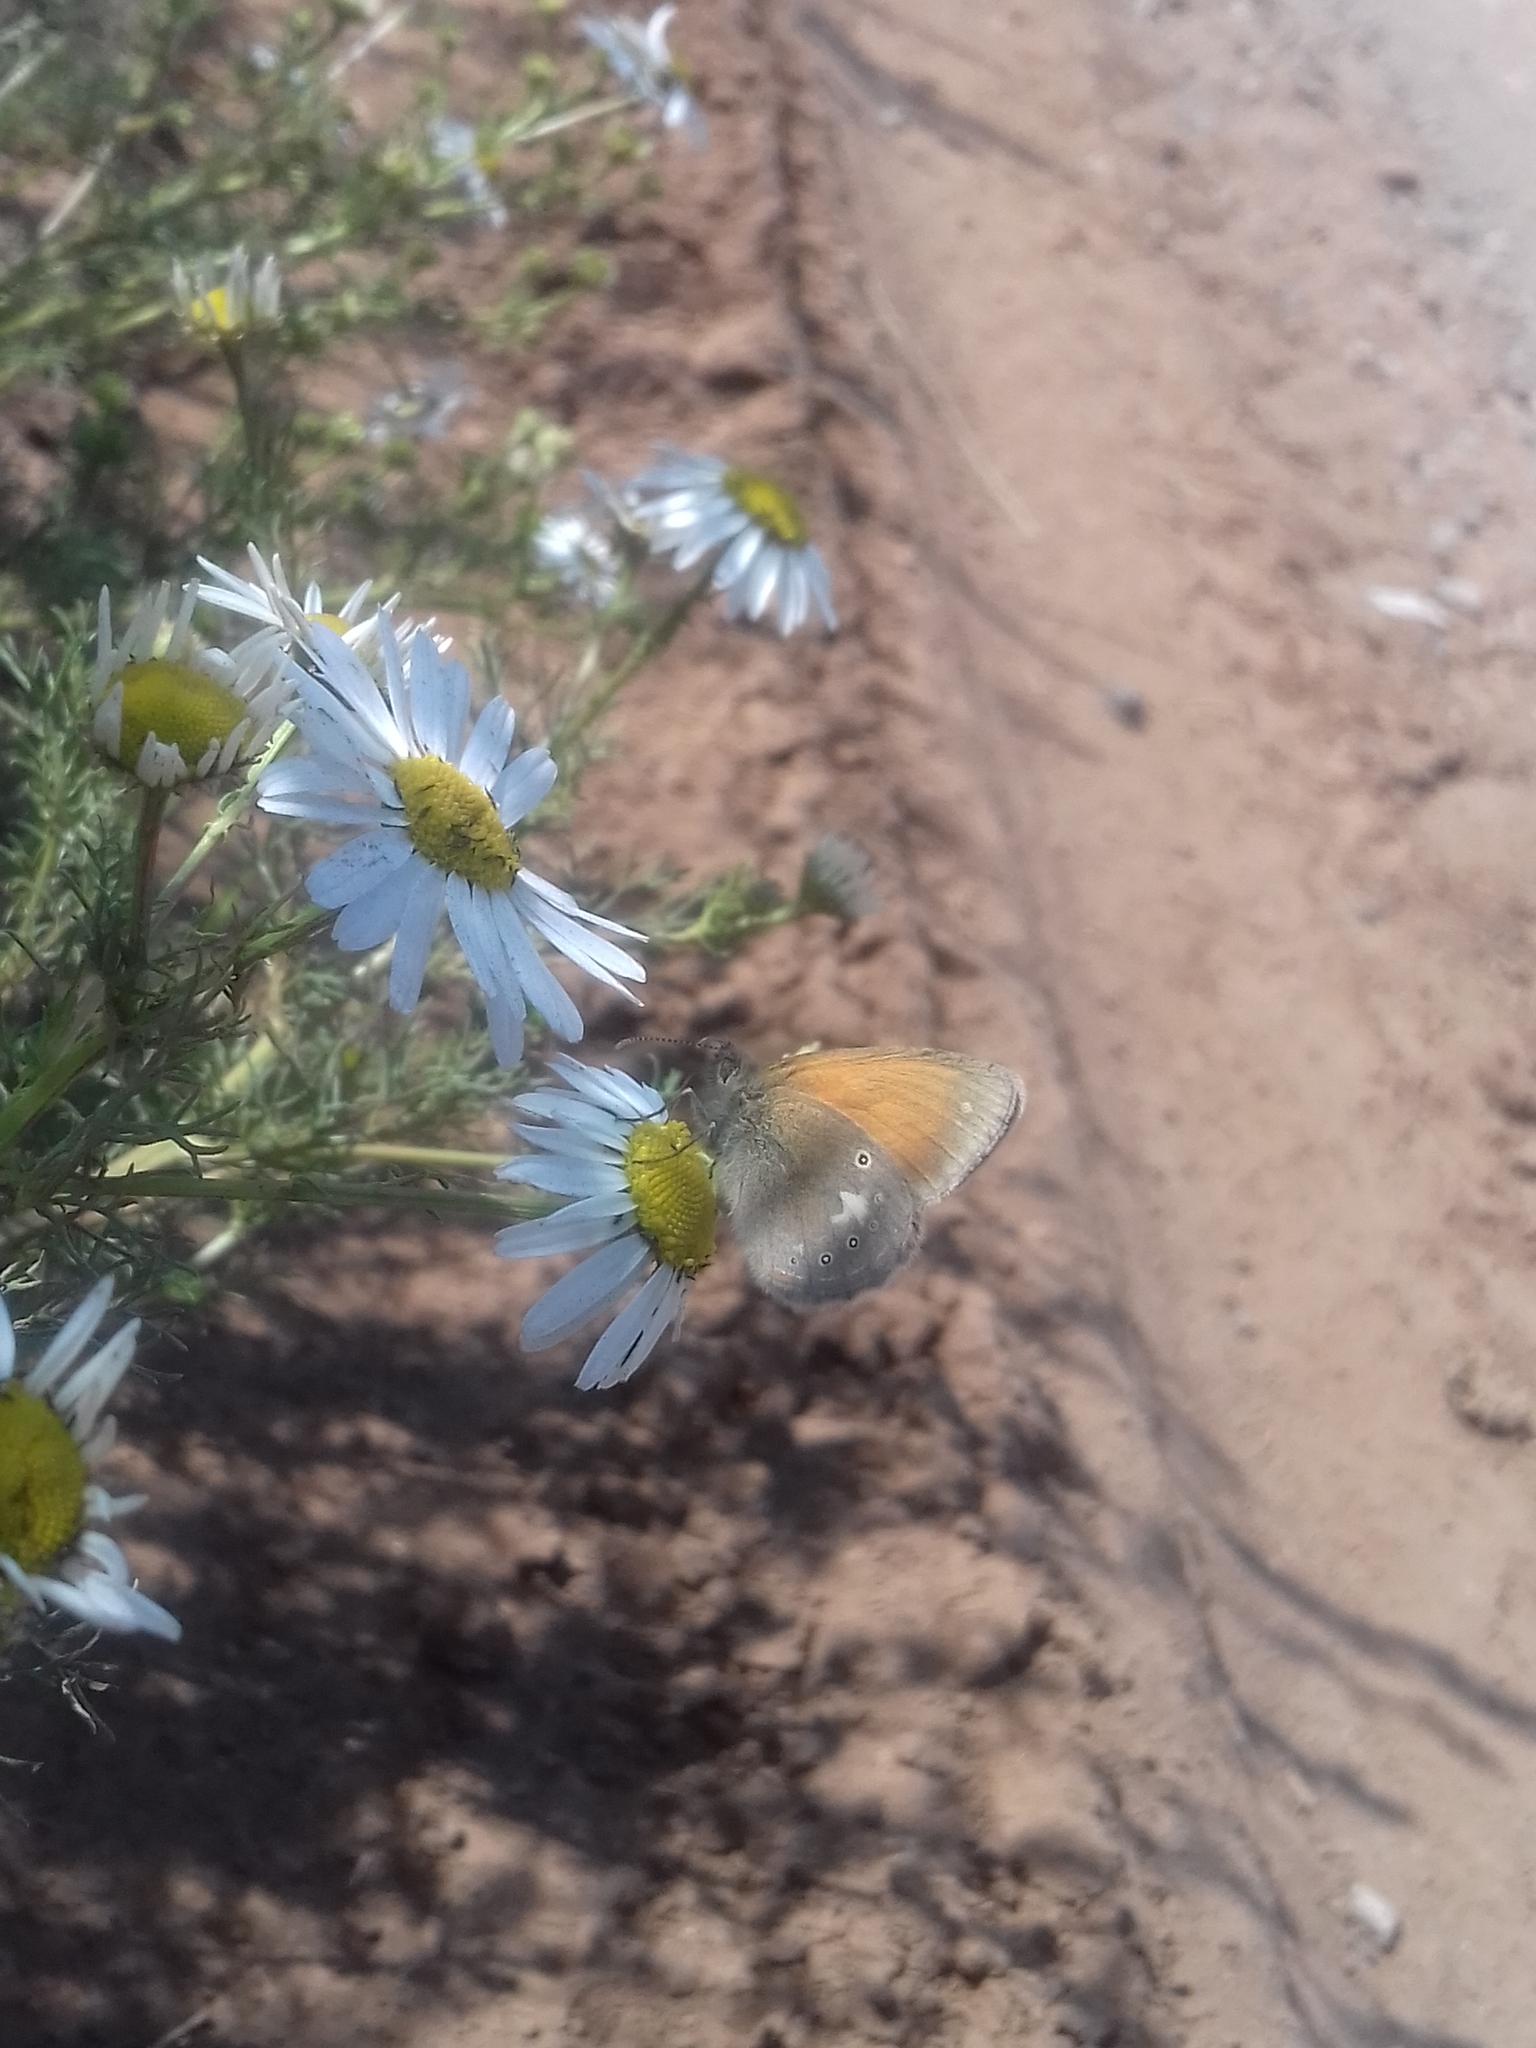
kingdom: Animalia
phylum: Arthropoda
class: Insecta
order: Lepidoptera
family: Nymphalidae
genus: Coenonympha
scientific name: Coenonympha iphis
